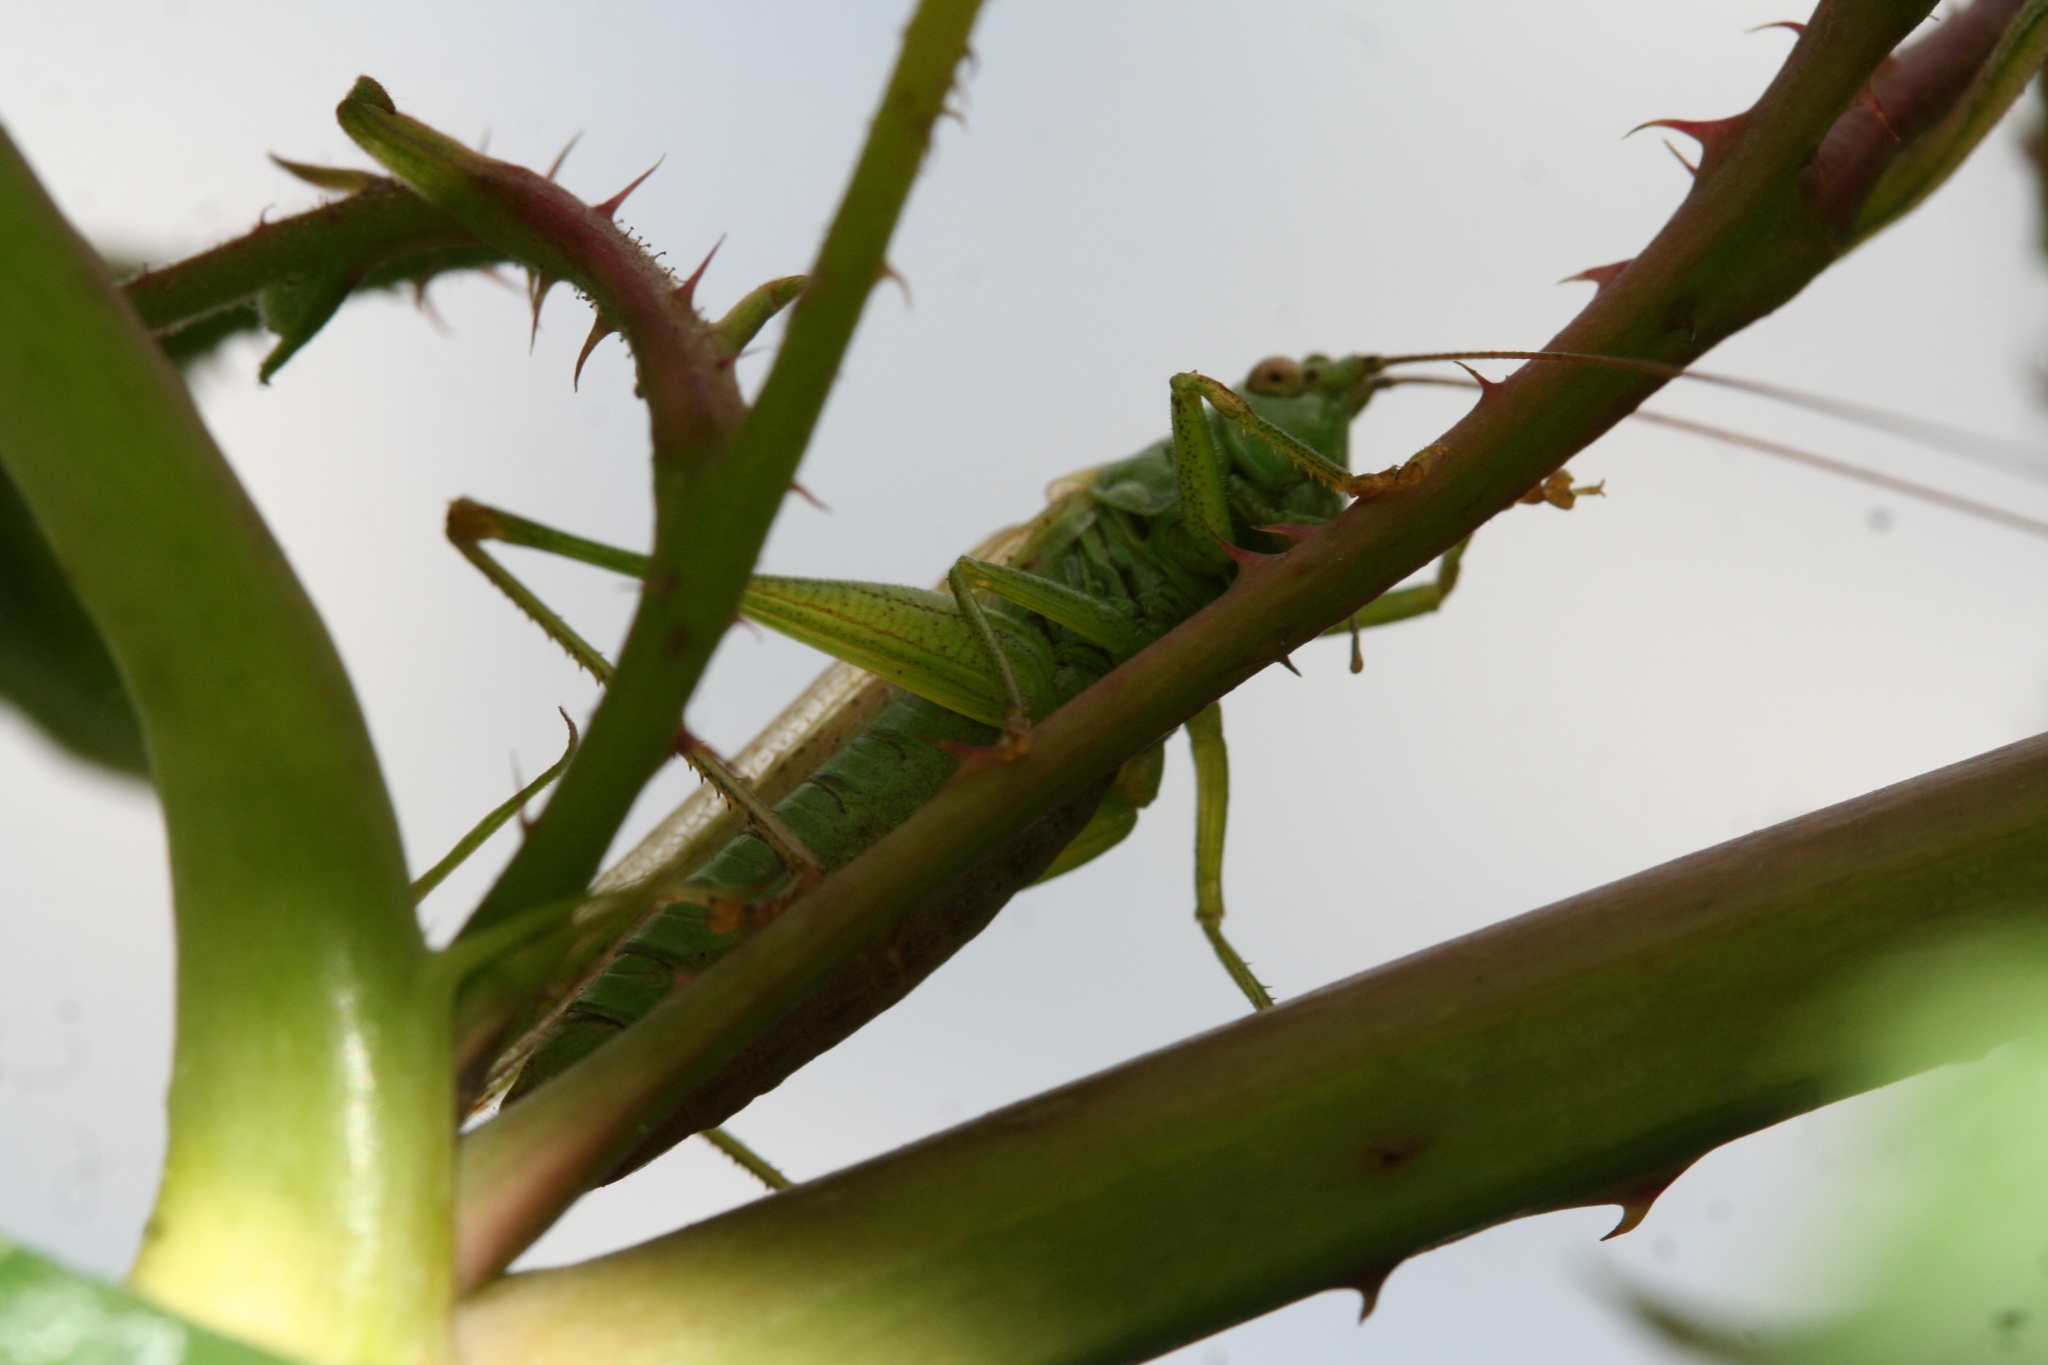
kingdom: Animalia
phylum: Arthropoda
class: Insecta
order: Orthoptera
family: Tettigoniidae
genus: Conocephalus
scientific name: Conocephalus fuscus
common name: Long-winged conehead
